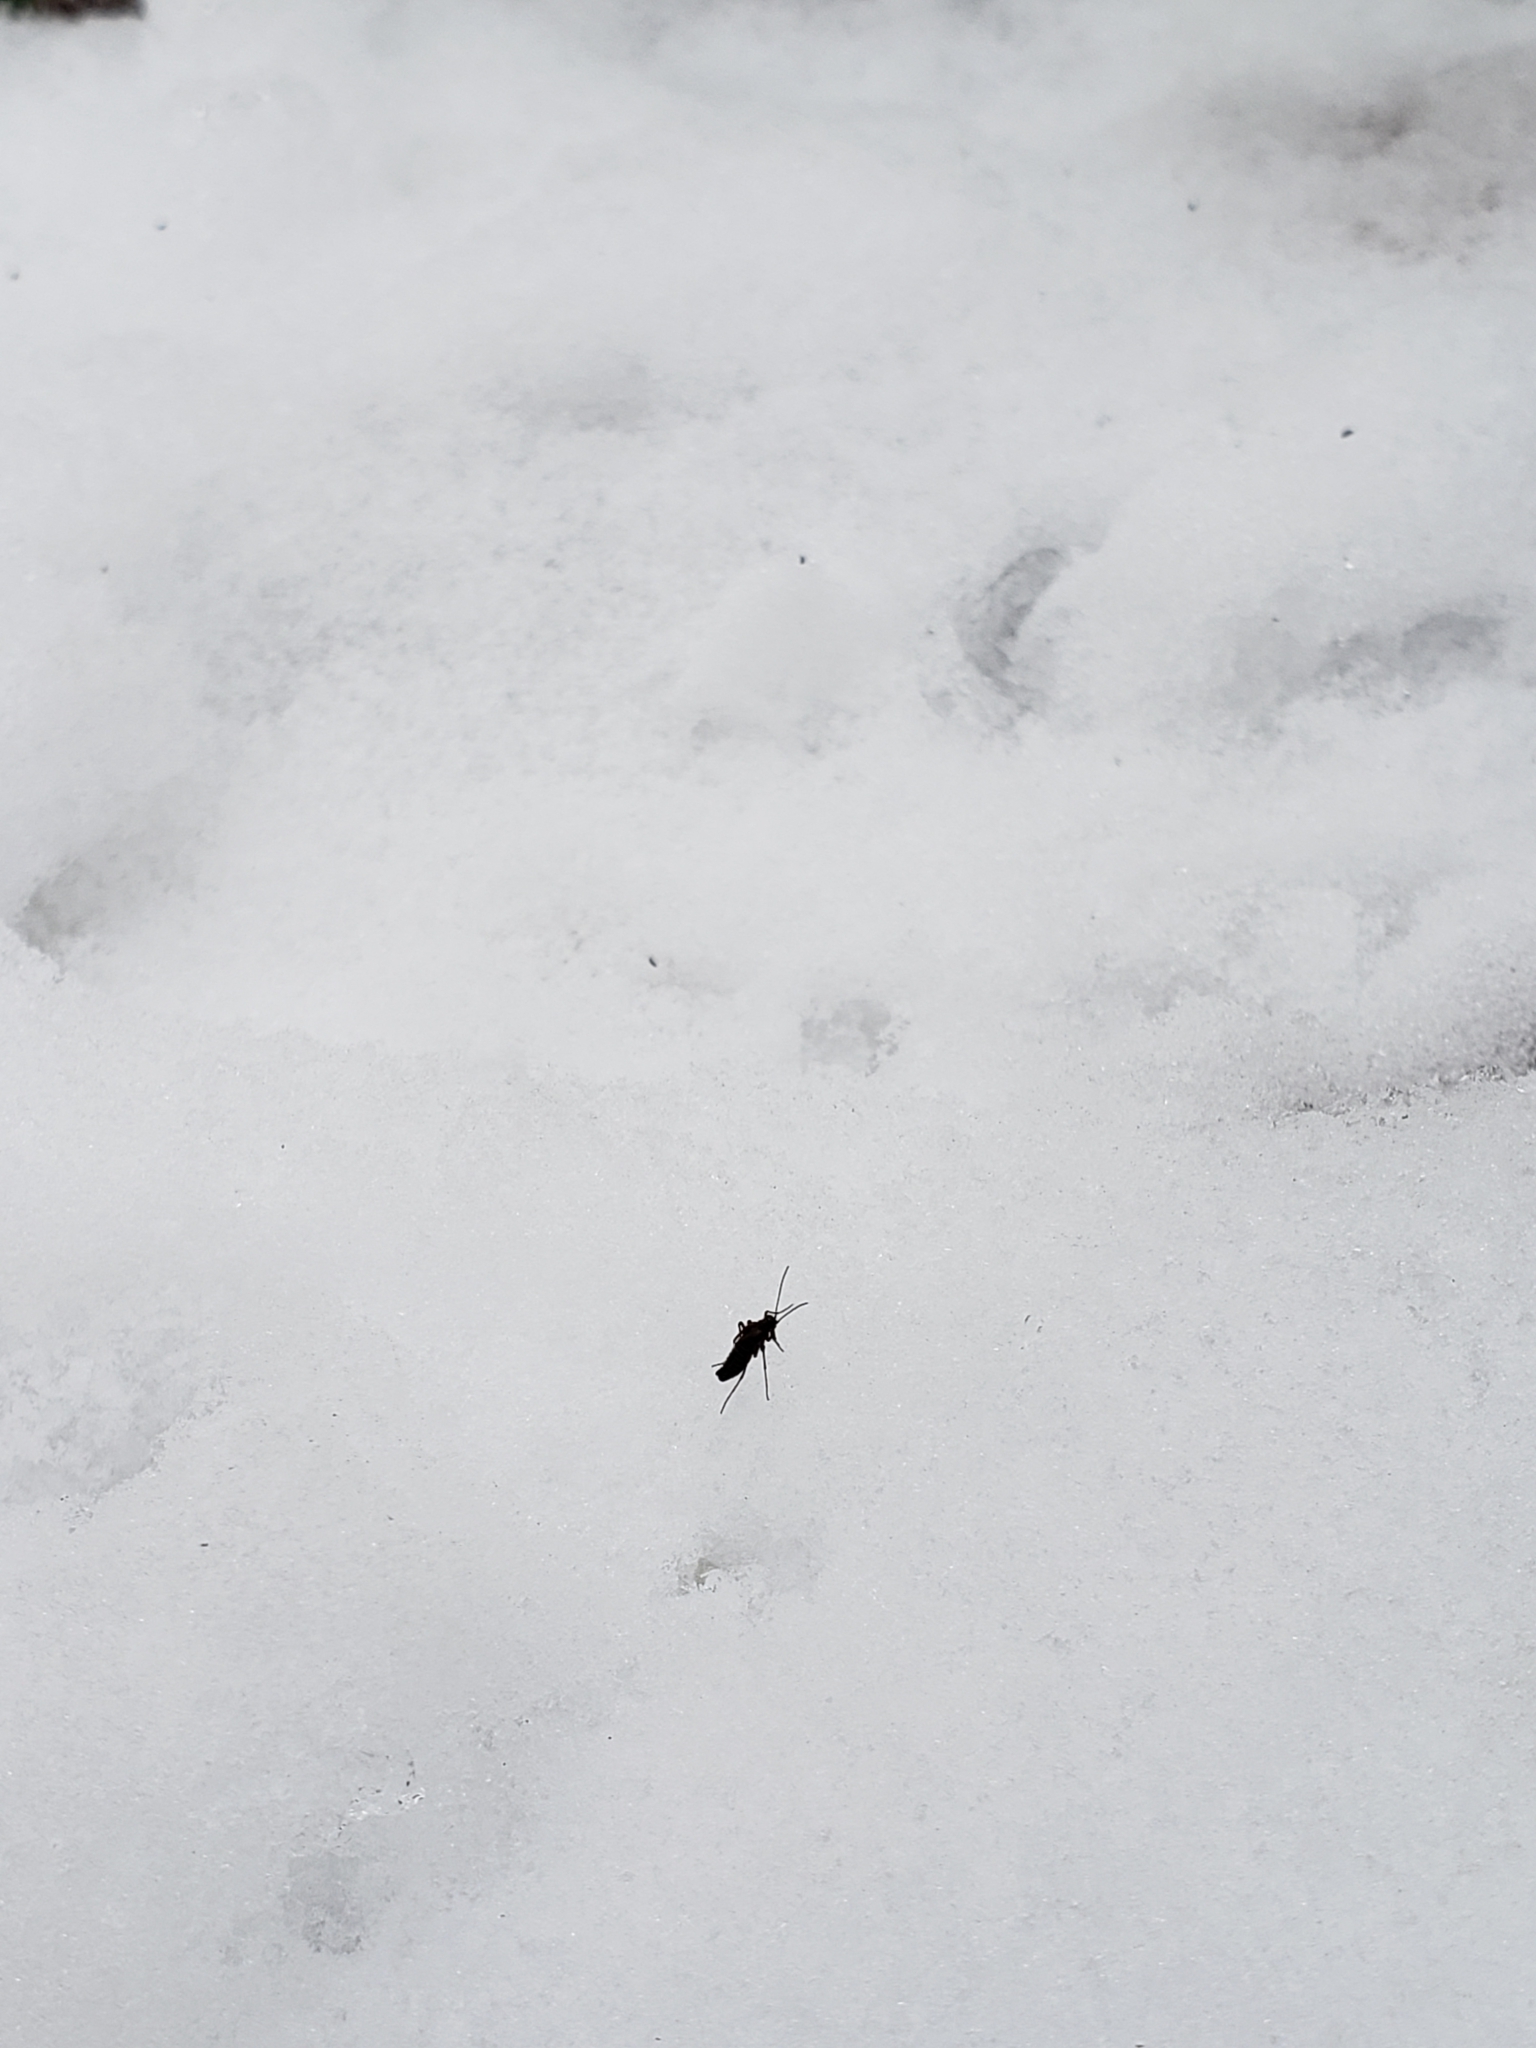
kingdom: Animalia
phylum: Arthropoda
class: Insecta
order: Mecoptera
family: Boreidae
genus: Boreus
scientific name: Boreus brumalis
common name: Mid-winter boreus
